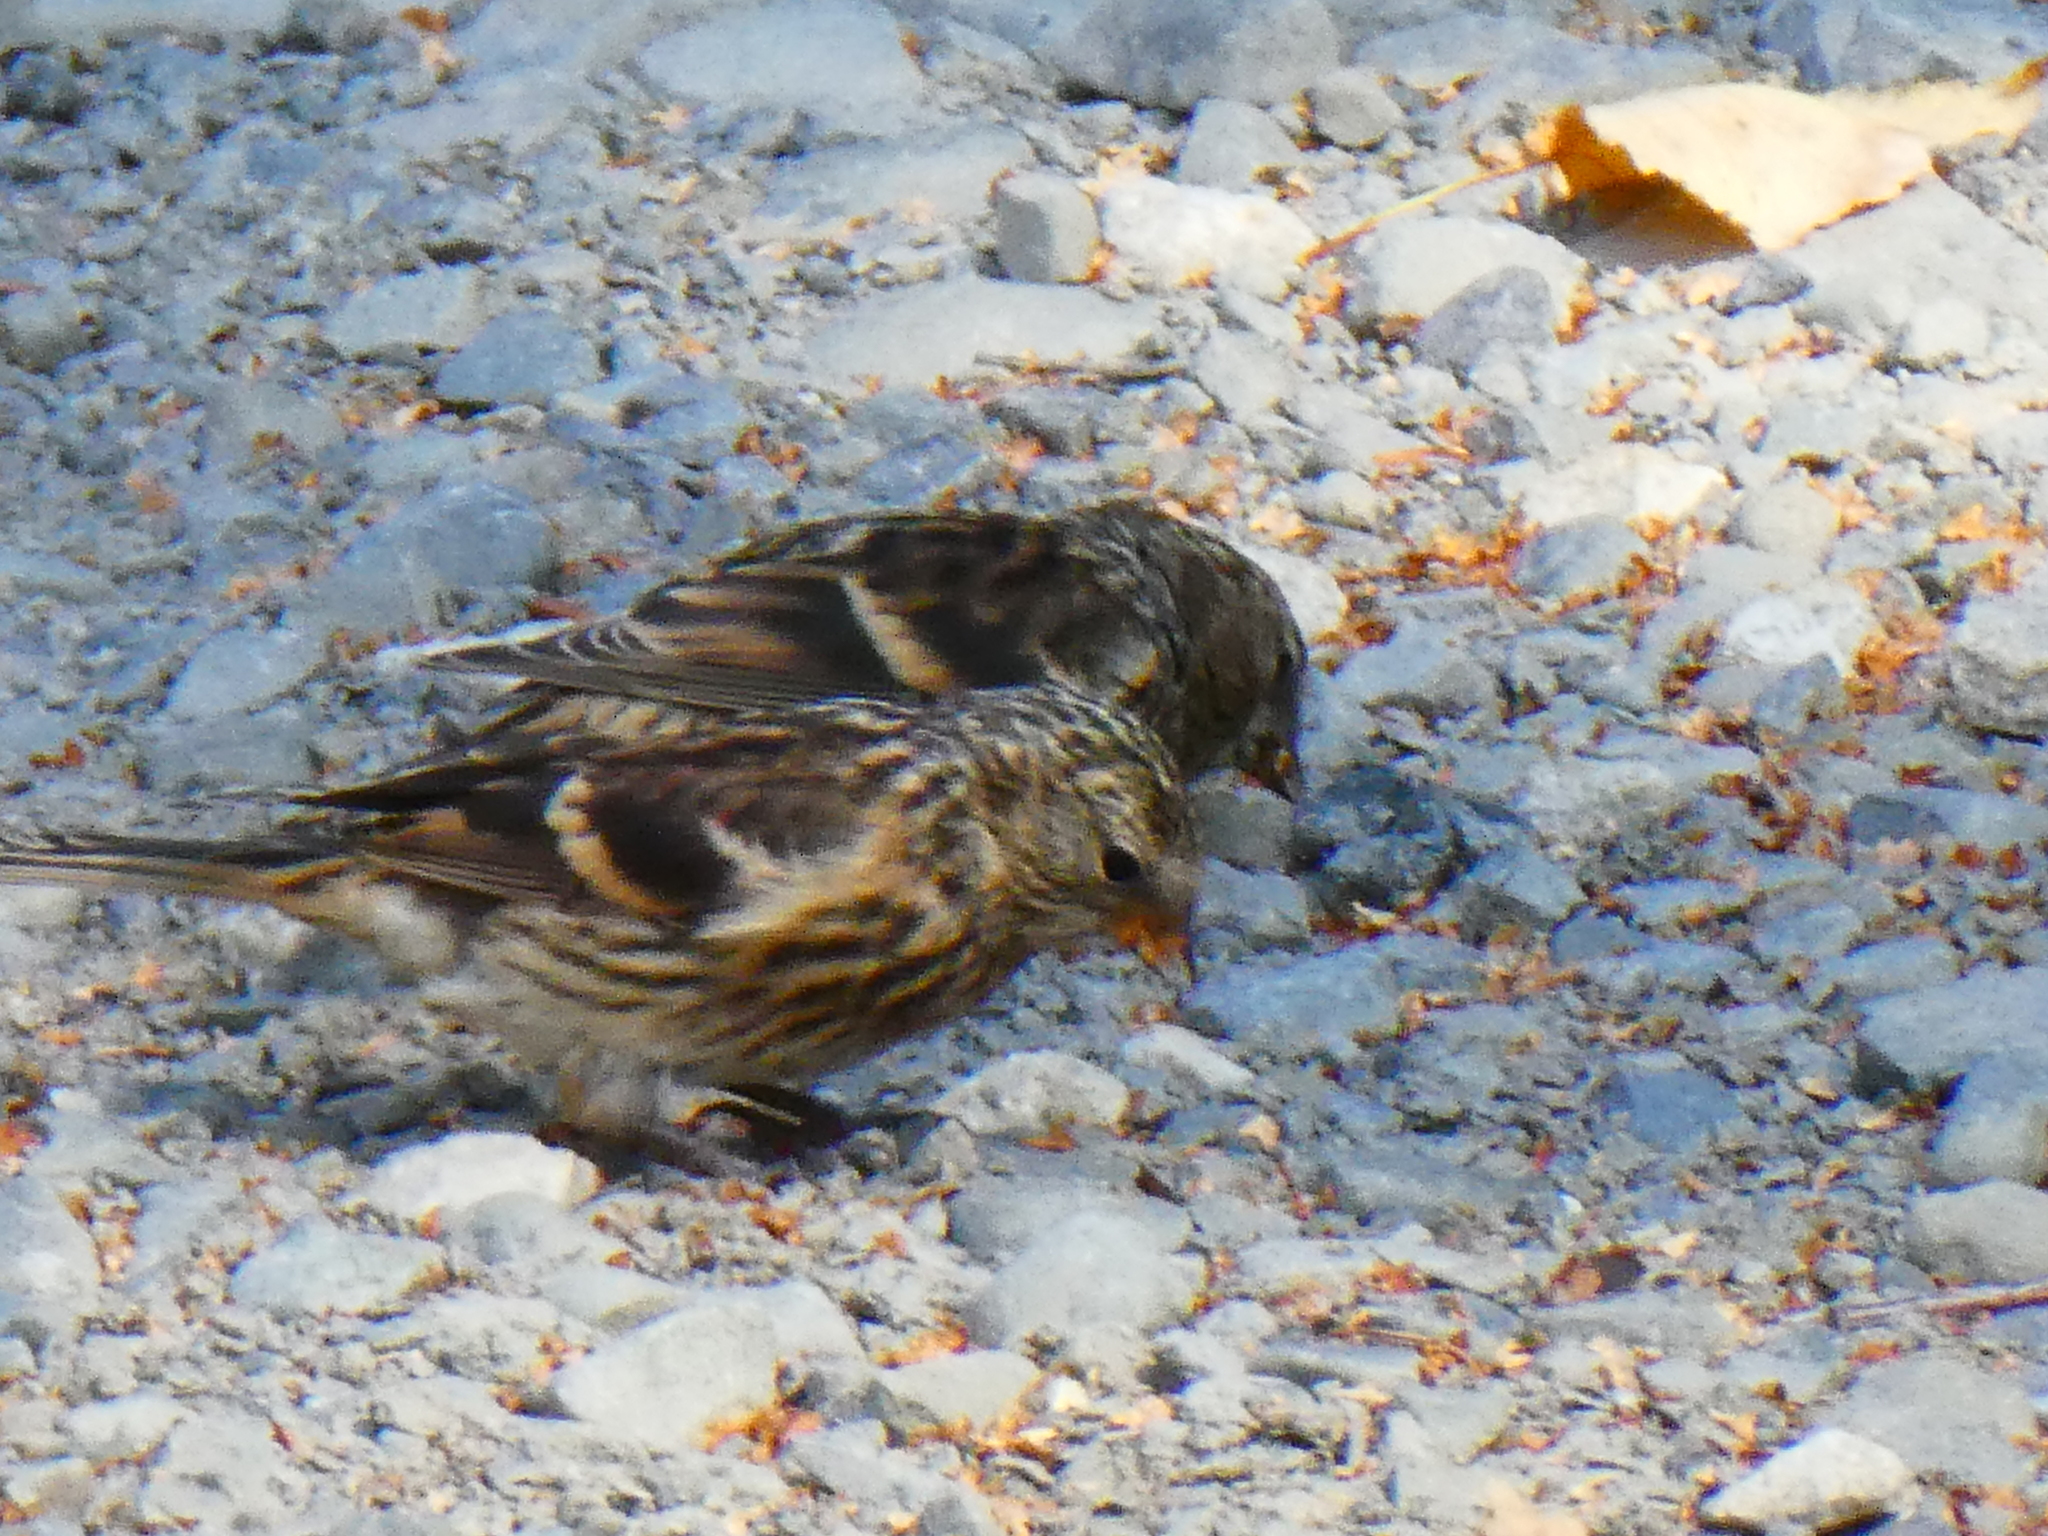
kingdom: Animalia
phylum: Chordata
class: Aves
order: Passeriformes
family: Fringillidae
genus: Acanthis
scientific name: Acanthis flammea
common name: Common redpoll
